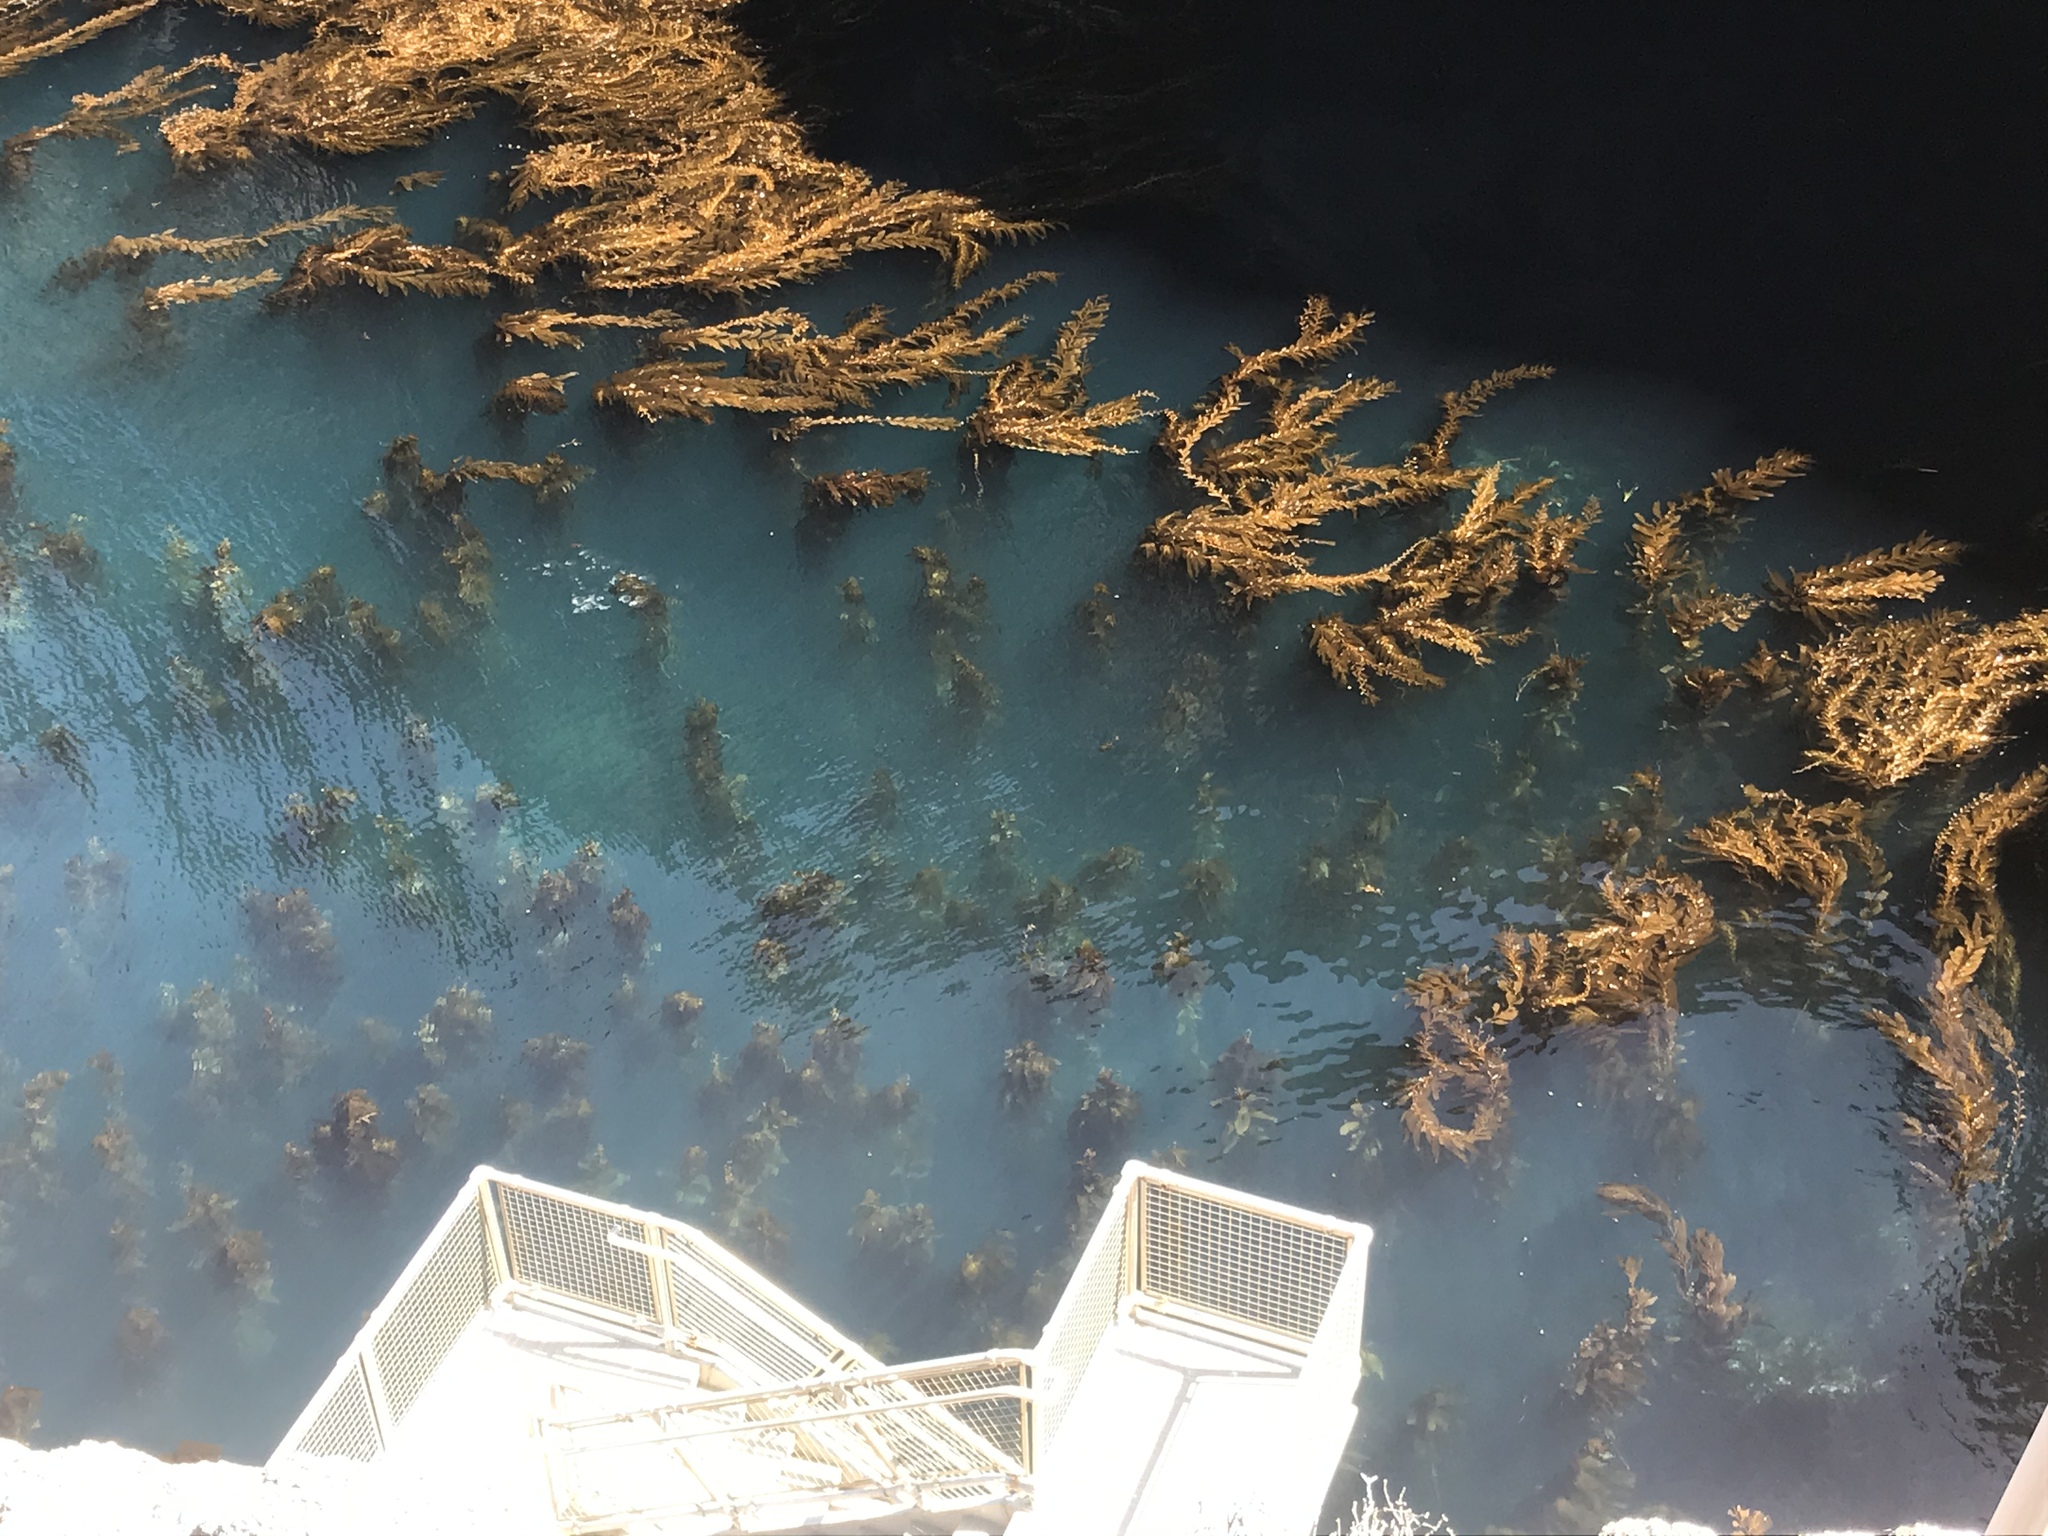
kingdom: Chromista
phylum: Ochrophyta
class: Phaeophyceae
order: Laminariales
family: Laminariaceae
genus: Macrocystis
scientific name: Macrocystis pyrifera
